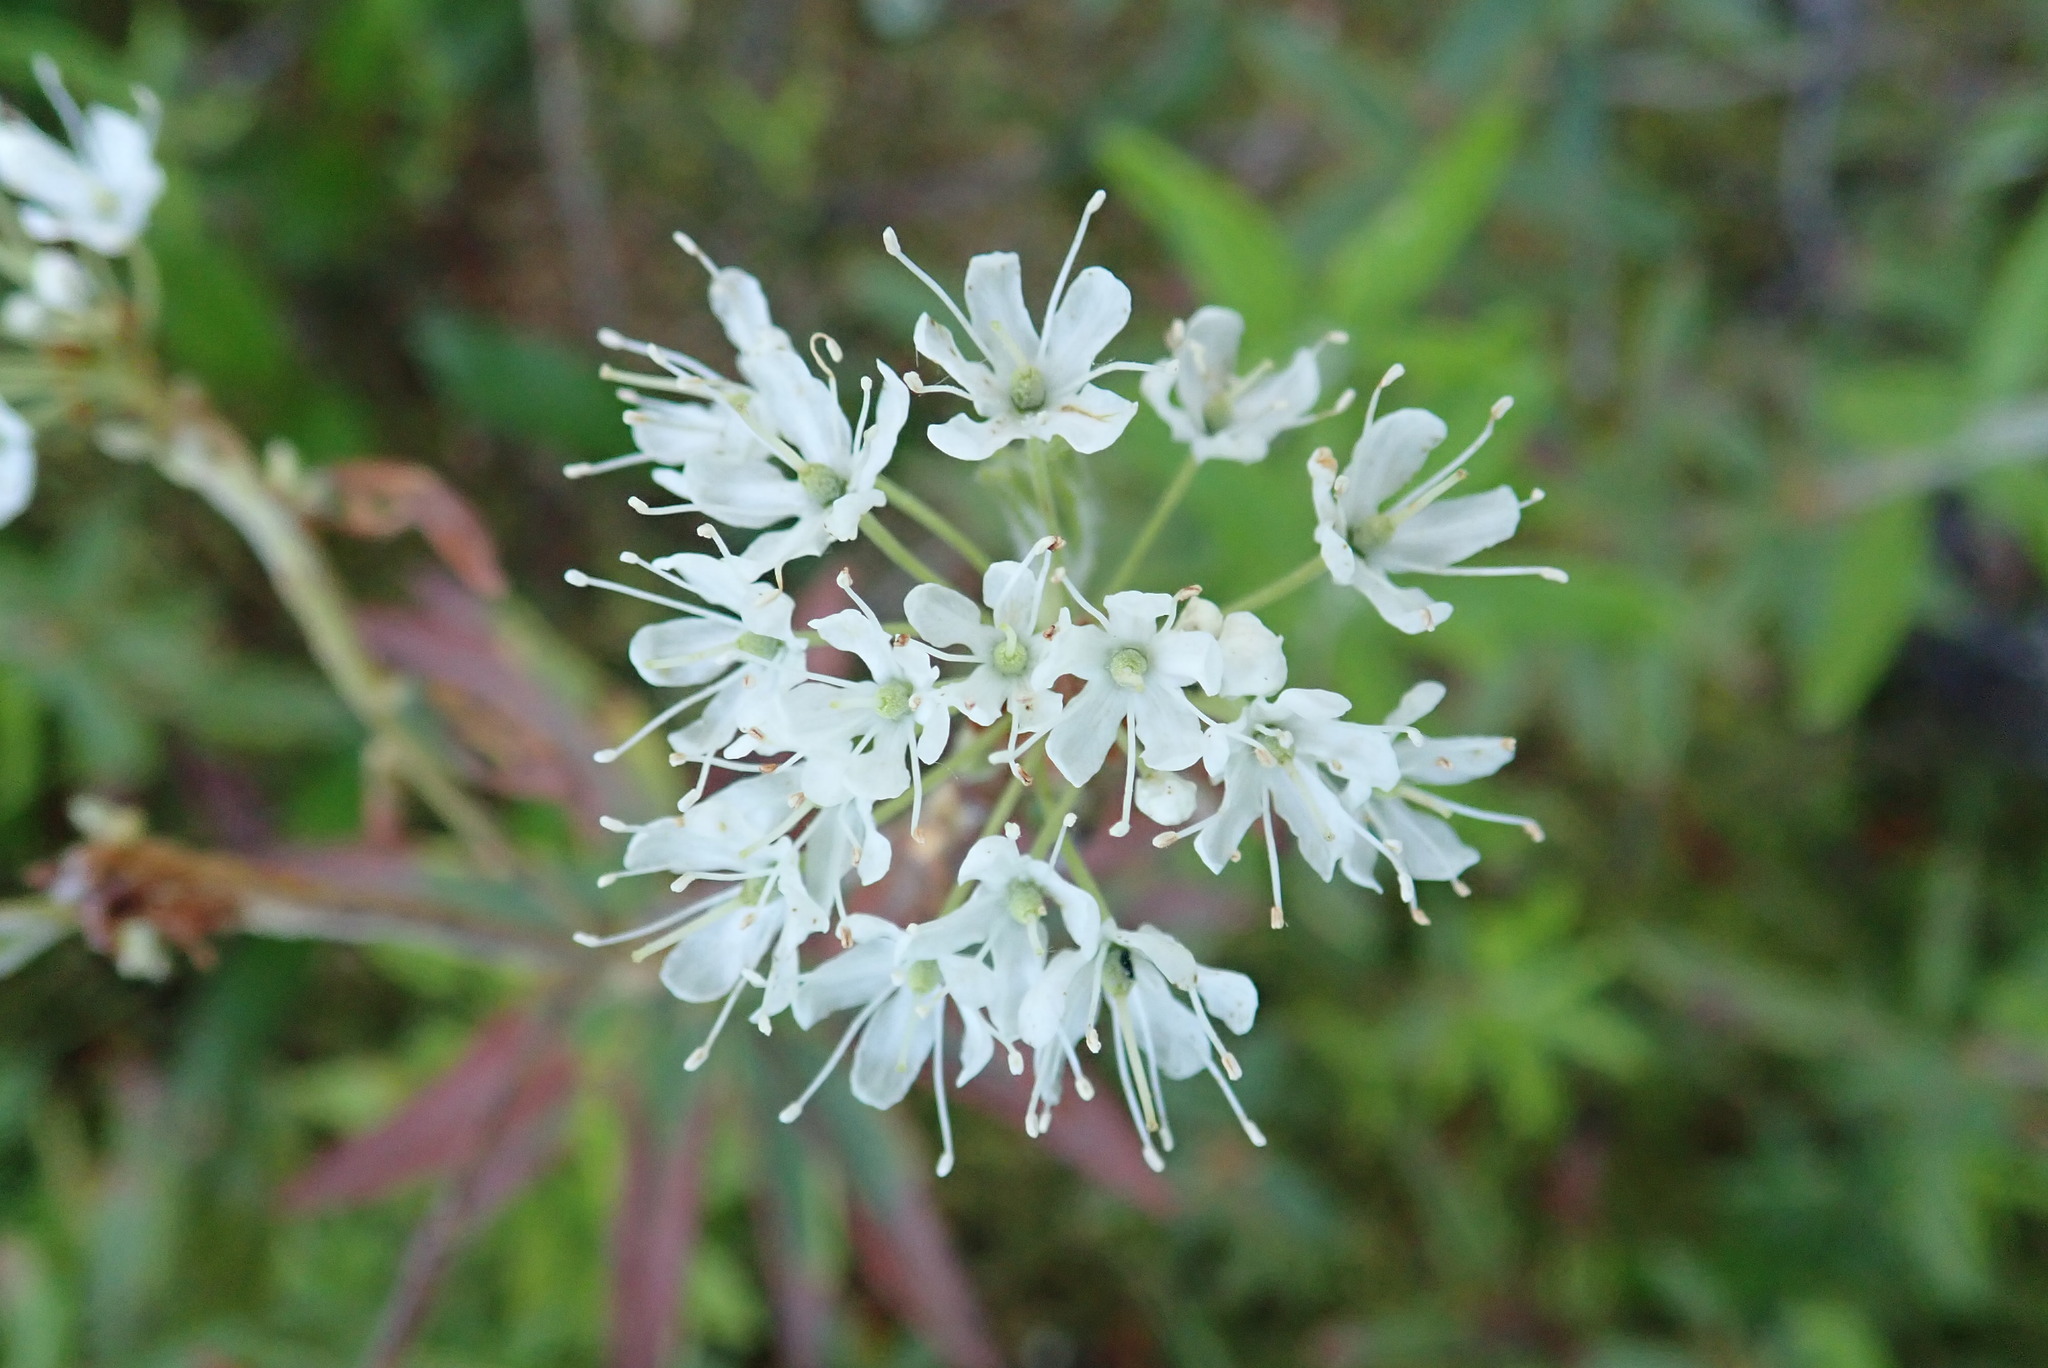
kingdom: Plantae
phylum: Tracheophyta
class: Magnoliopsida
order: Ericales
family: Ericaceae
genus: Rhododendron
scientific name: Rhododendron groenlandicum
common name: Bog labrador tea
